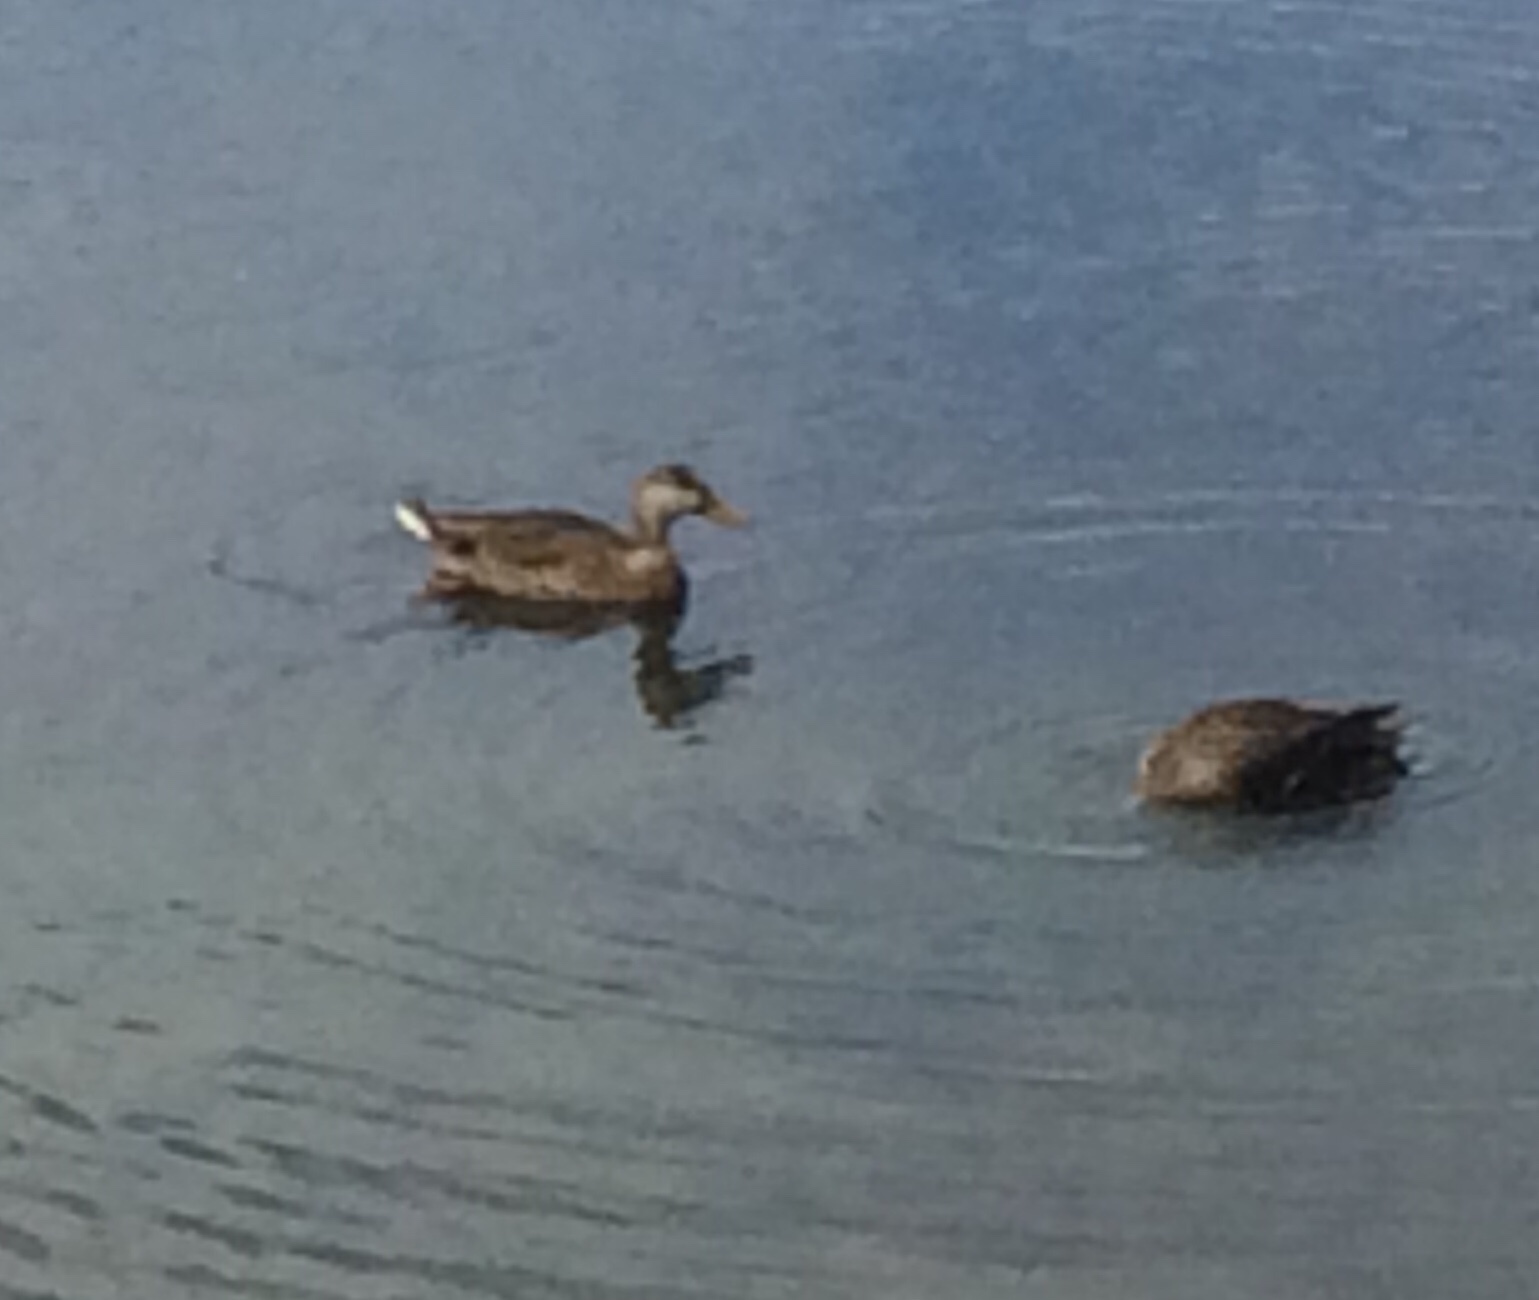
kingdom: Animalia
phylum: Chordata
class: Aves
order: Anseriformes
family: Anatidae
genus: Anas
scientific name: Anas
